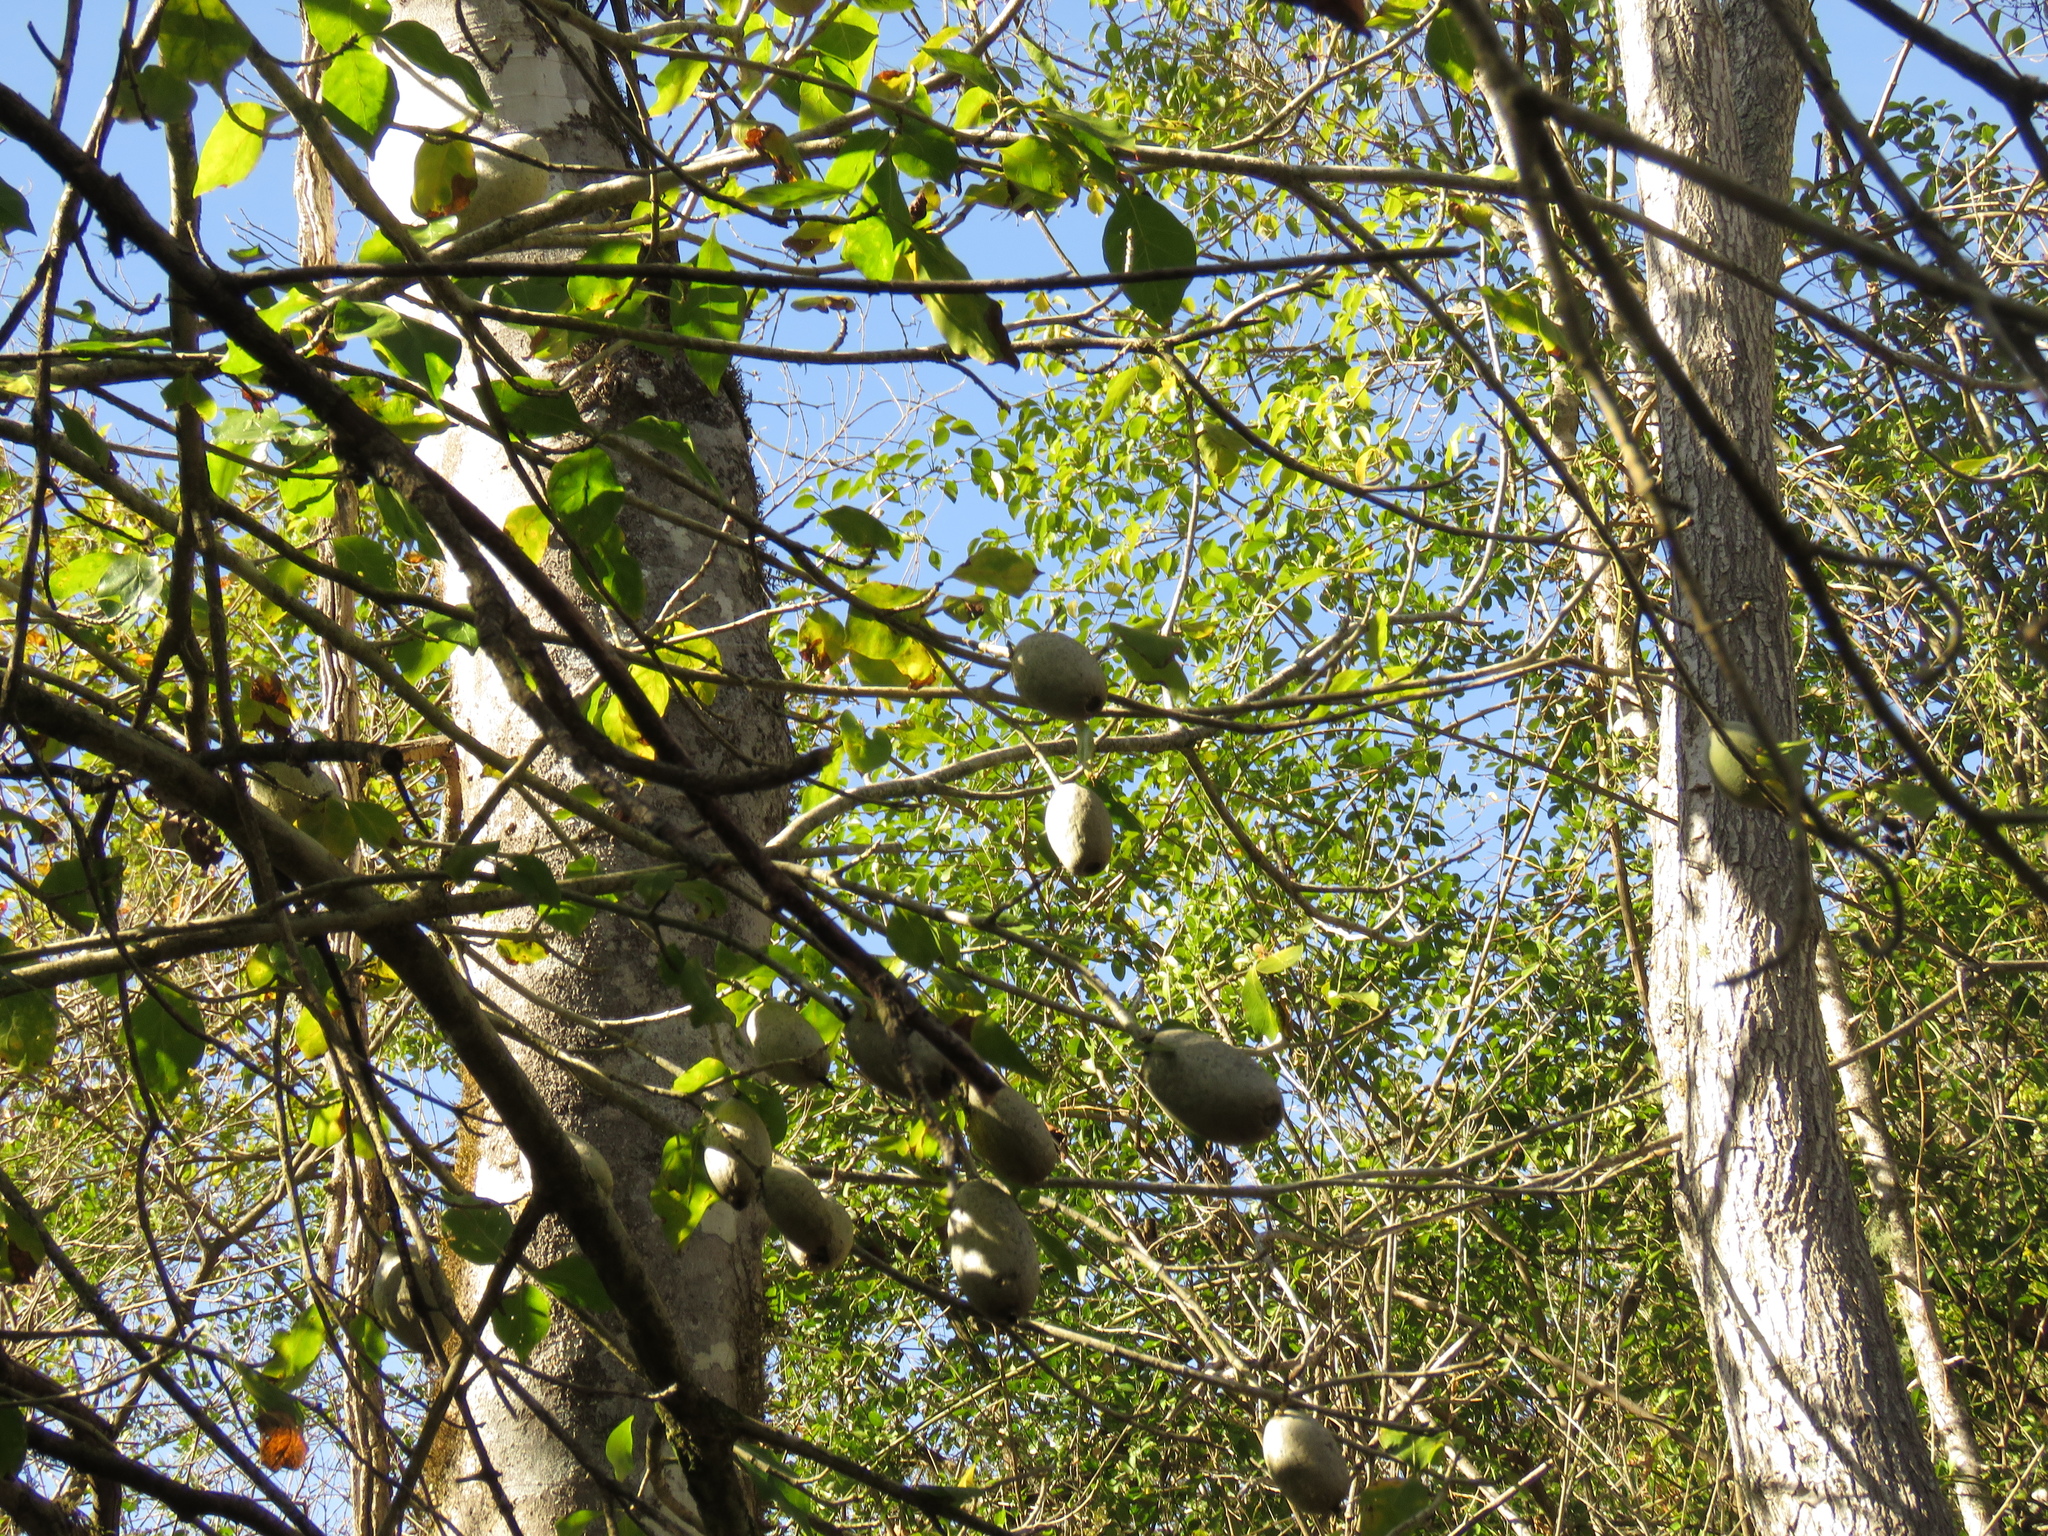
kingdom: Plantae
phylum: Tracheophyta
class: Magnoliopsida
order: Gentianales
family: Rubiaceae
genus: Gardenia
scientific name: Gardenia thunbergia
